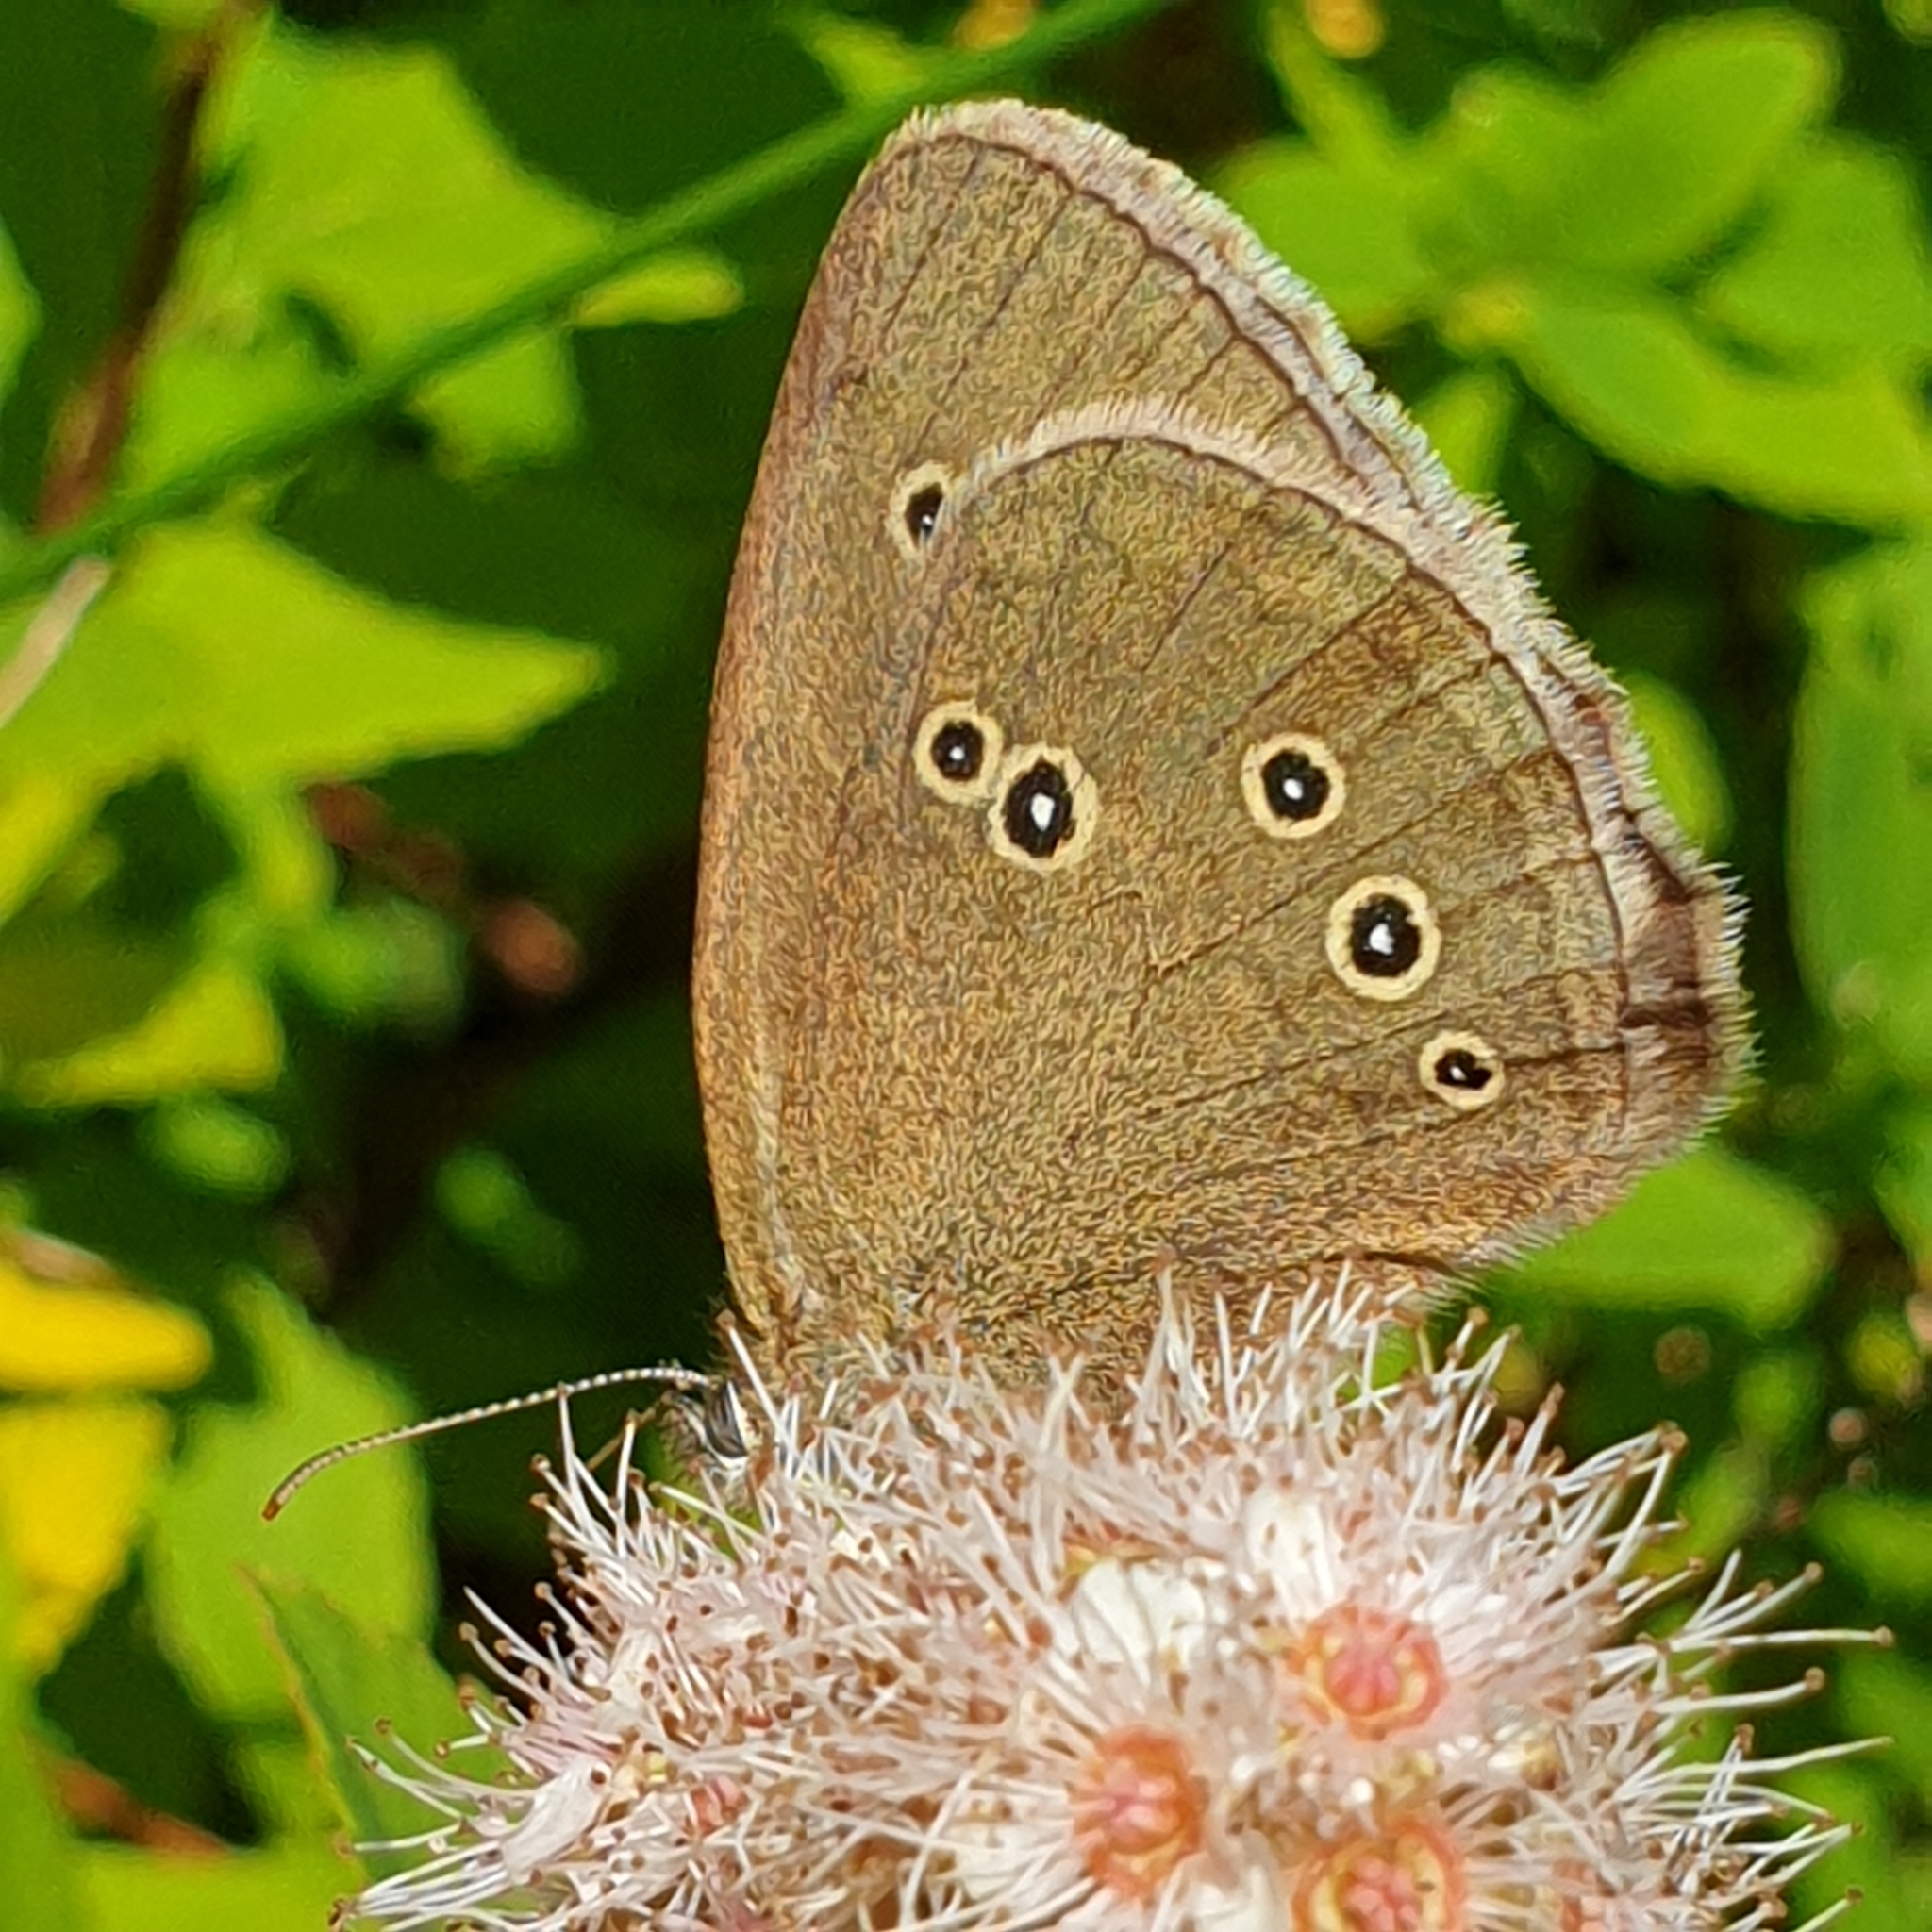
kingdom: Animalia
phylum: Arthropoda
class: Insecta
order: Lepidoptera
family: Nymphalidae
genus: Aphantopus
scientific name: Aphantopus hyperantus
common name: Ringlet
